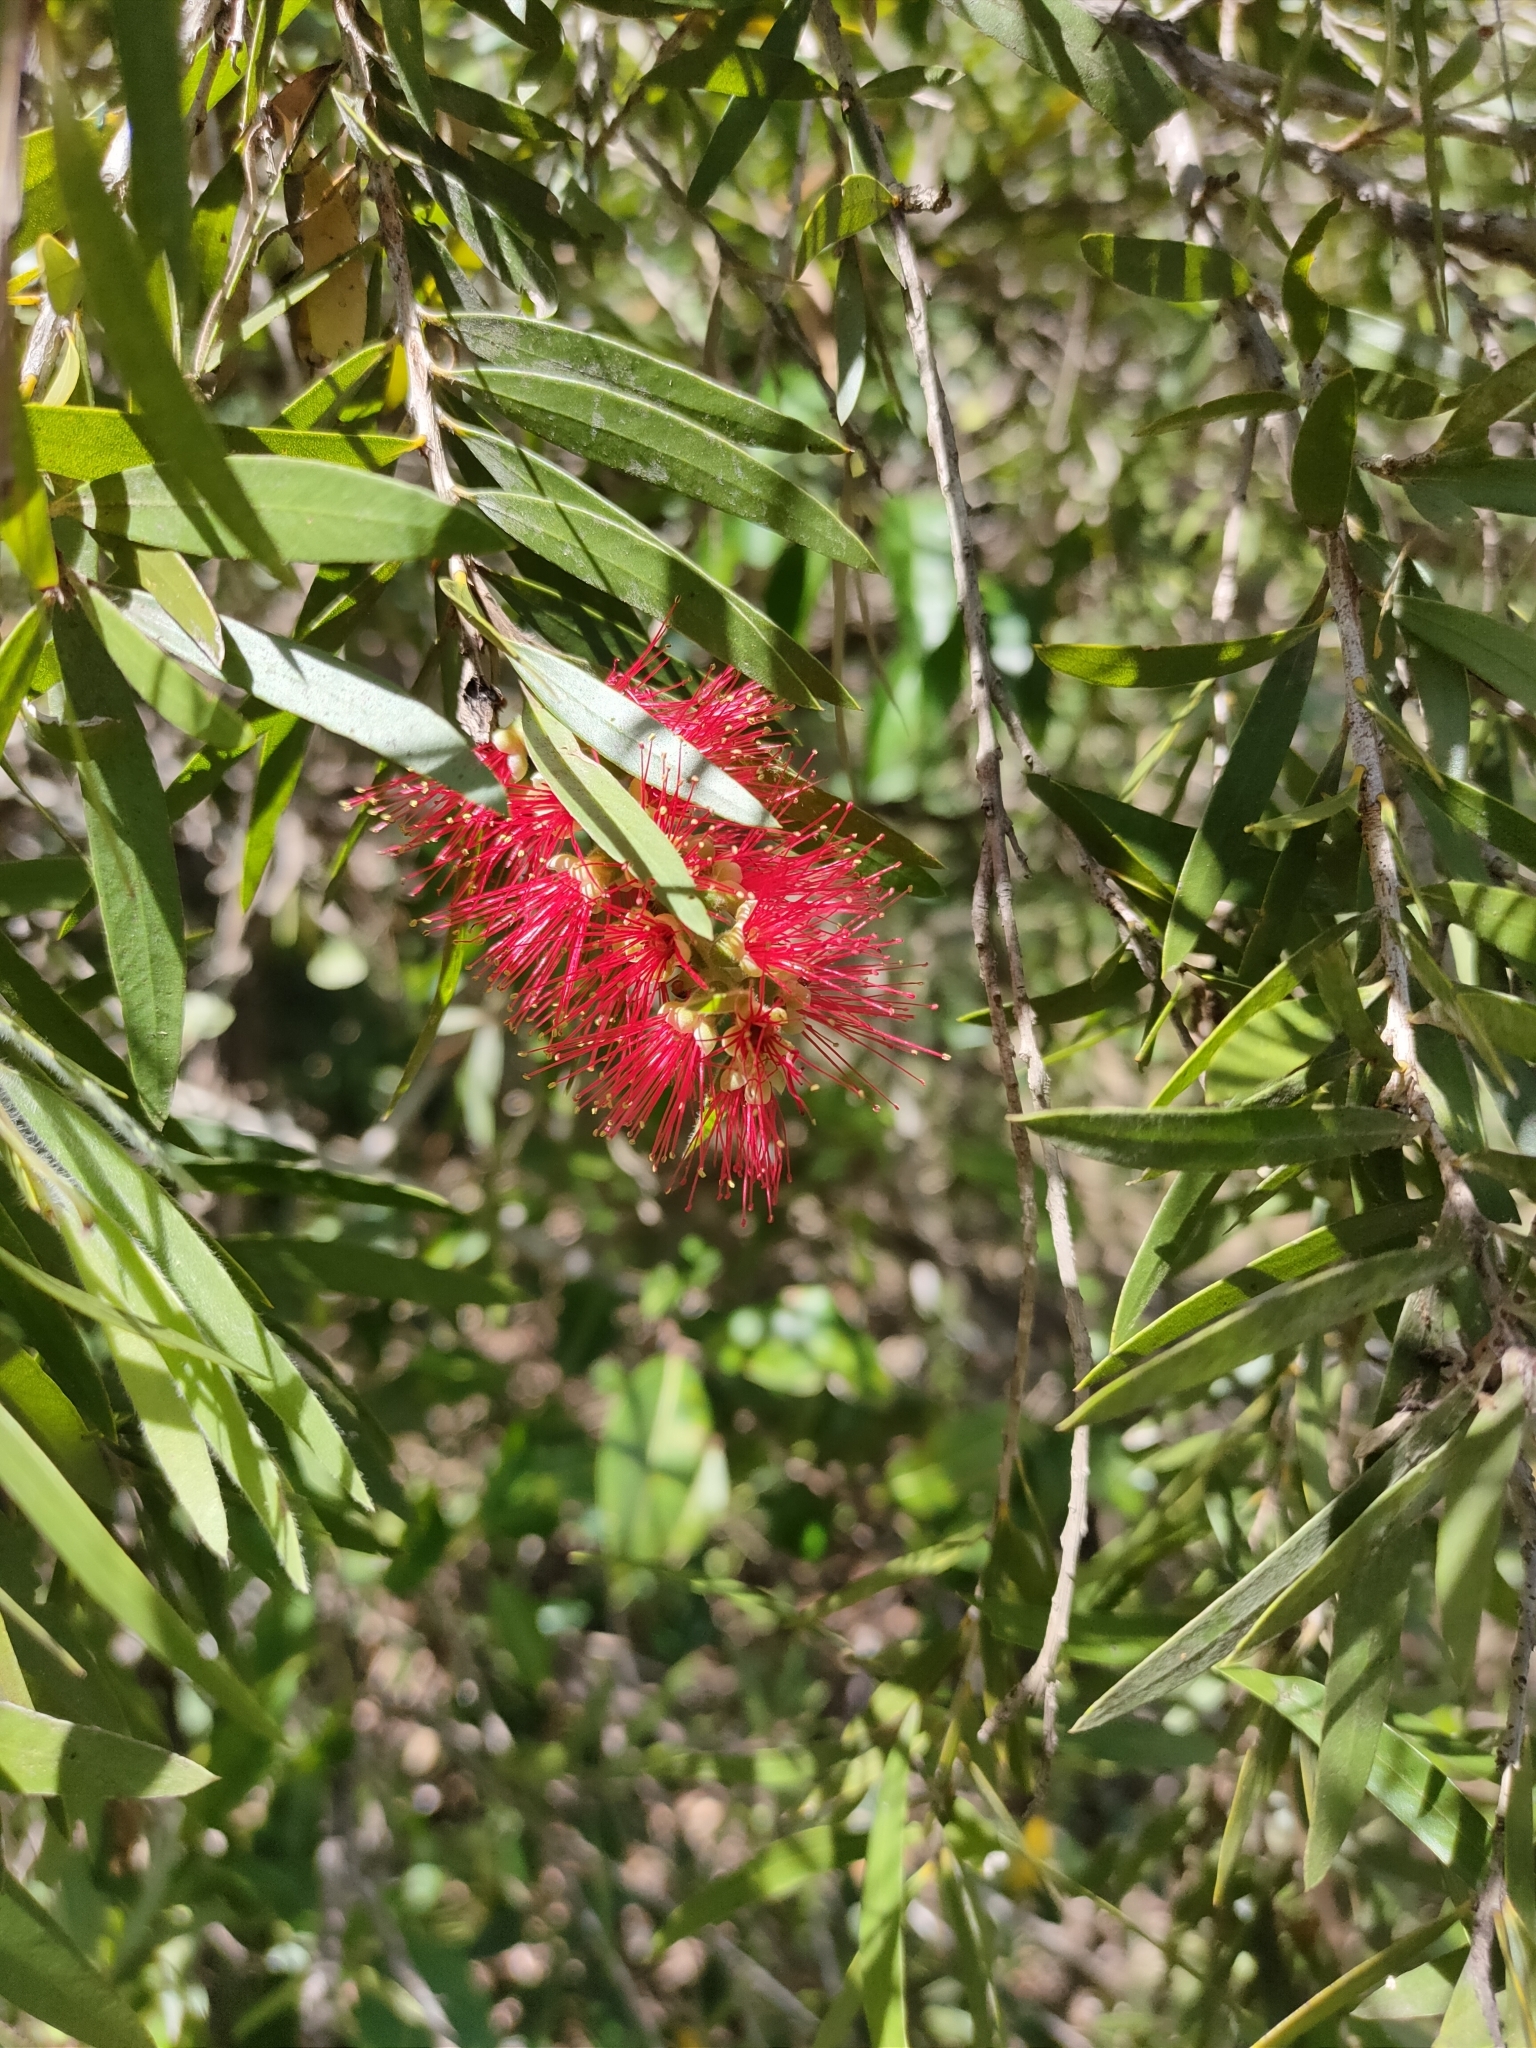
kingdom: Plantae
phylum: Tracheophyta
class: Magnoliopsida
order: Myrtales
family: Myrtaceae
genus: Callistemon
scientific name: Callistemon viminalis
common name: Drooping bottlebrush
